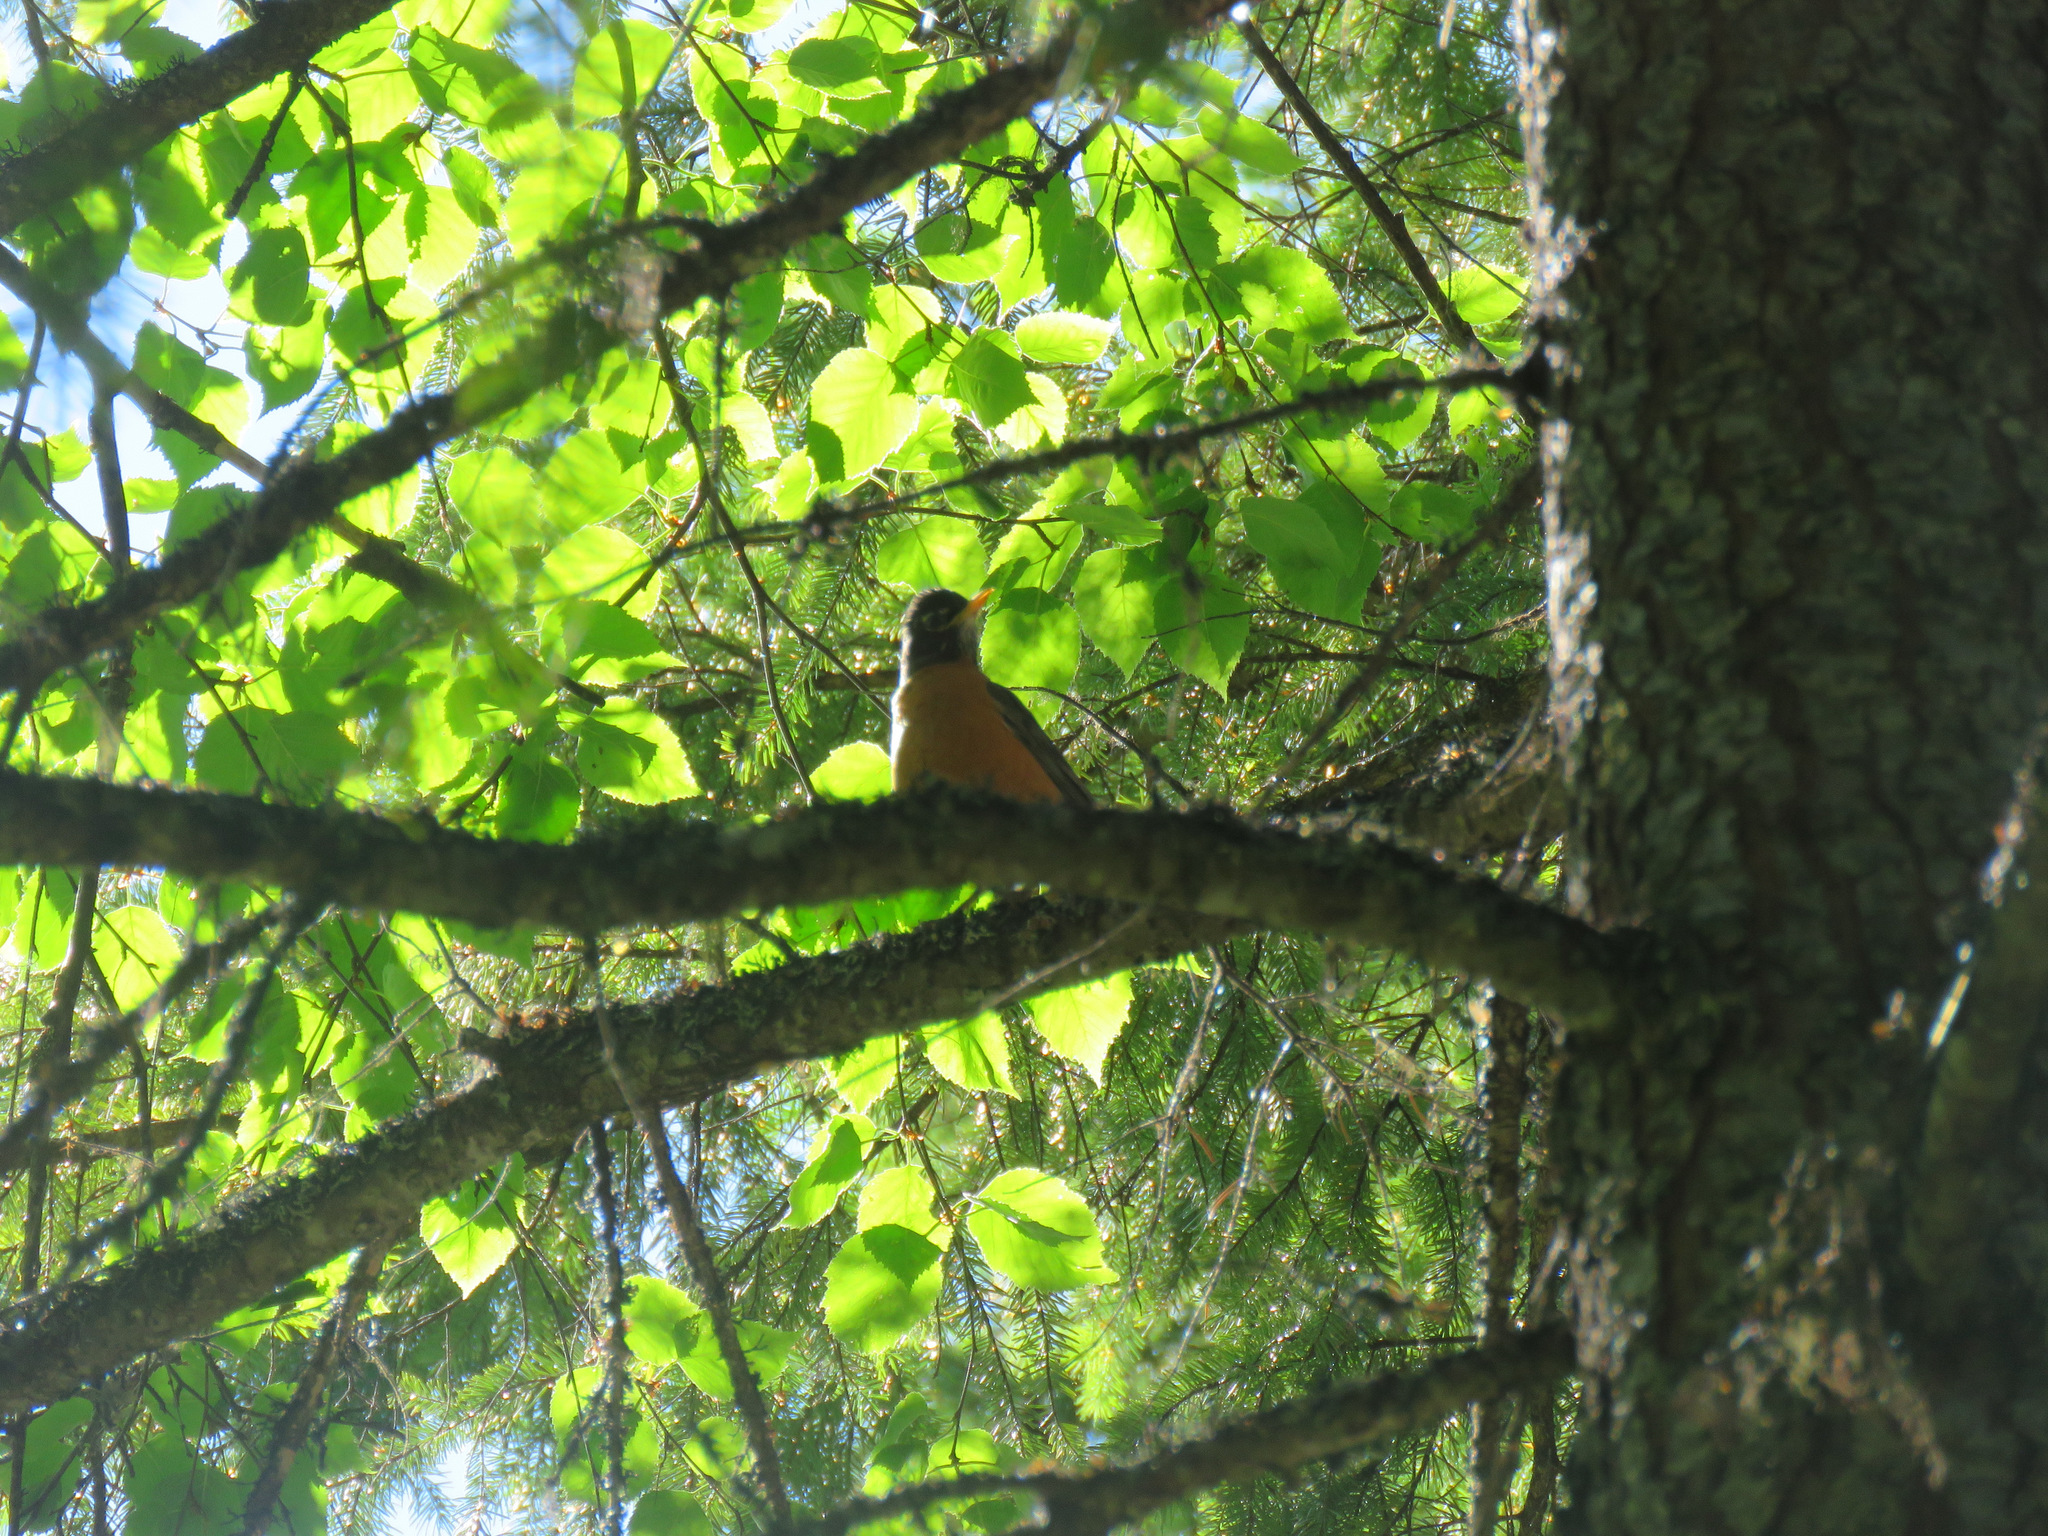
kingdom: Animalia
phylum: Chordata
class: Aves
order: Passeriformes
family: Turdidae
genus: Turdus
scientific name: Turdus migratorius
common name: American robin
